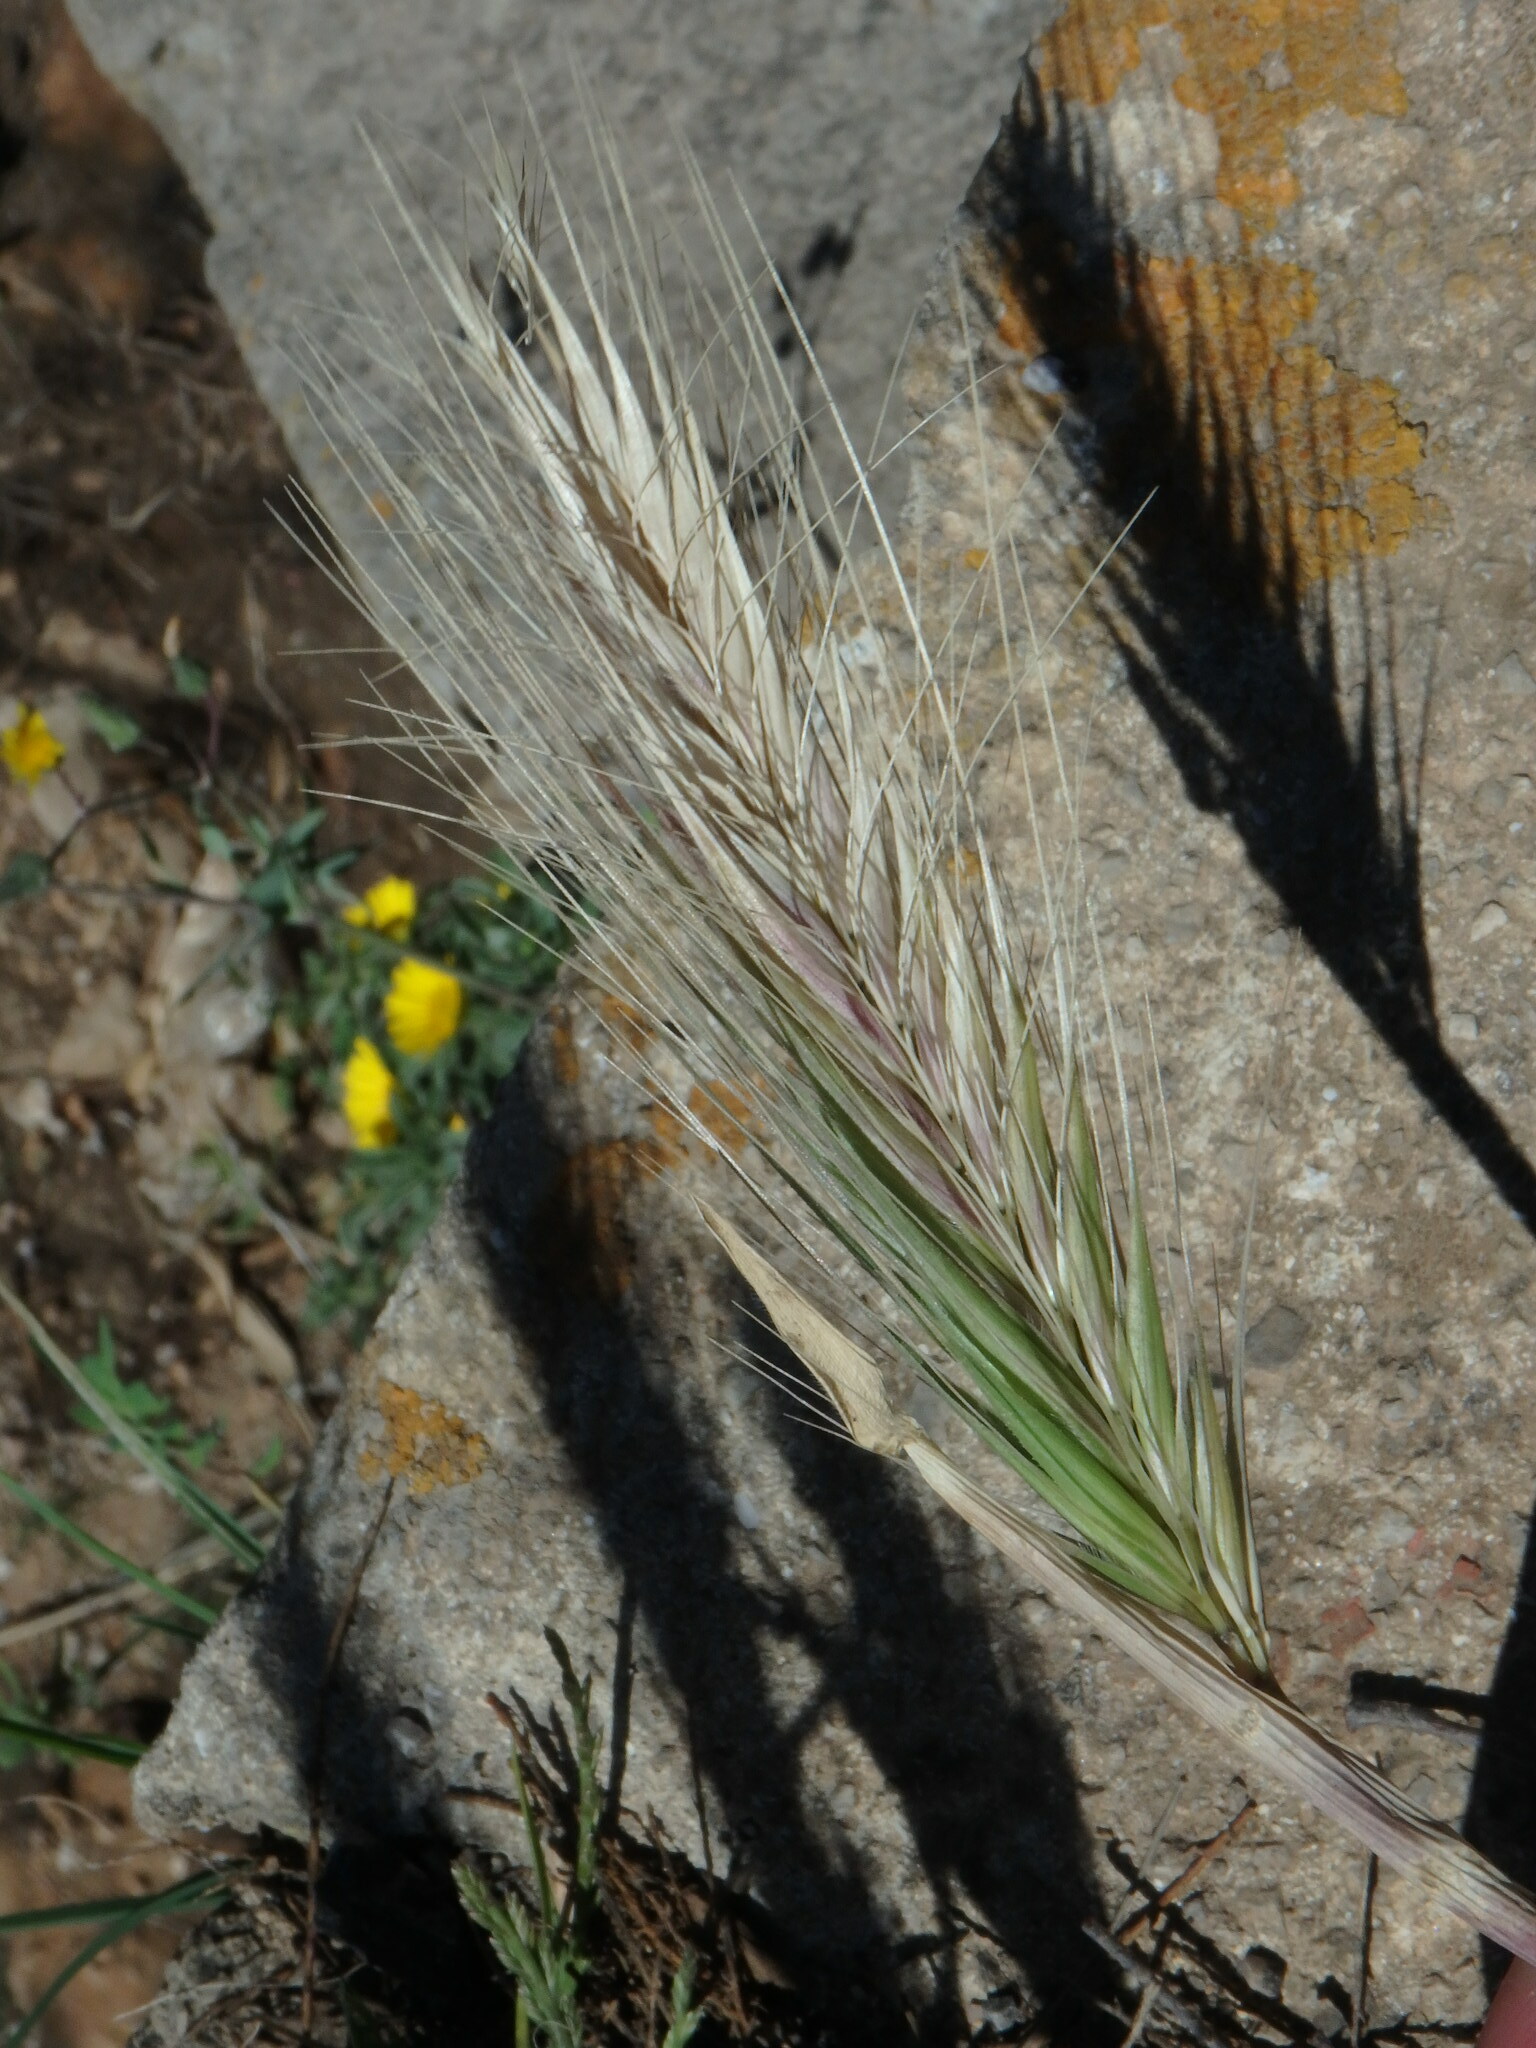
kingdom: Plantae
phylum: Tracheophyta
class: Liliopsida
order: Poales
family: Poaceae
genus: Hordeum
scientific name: Hordeum murinum
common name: Wall barley
